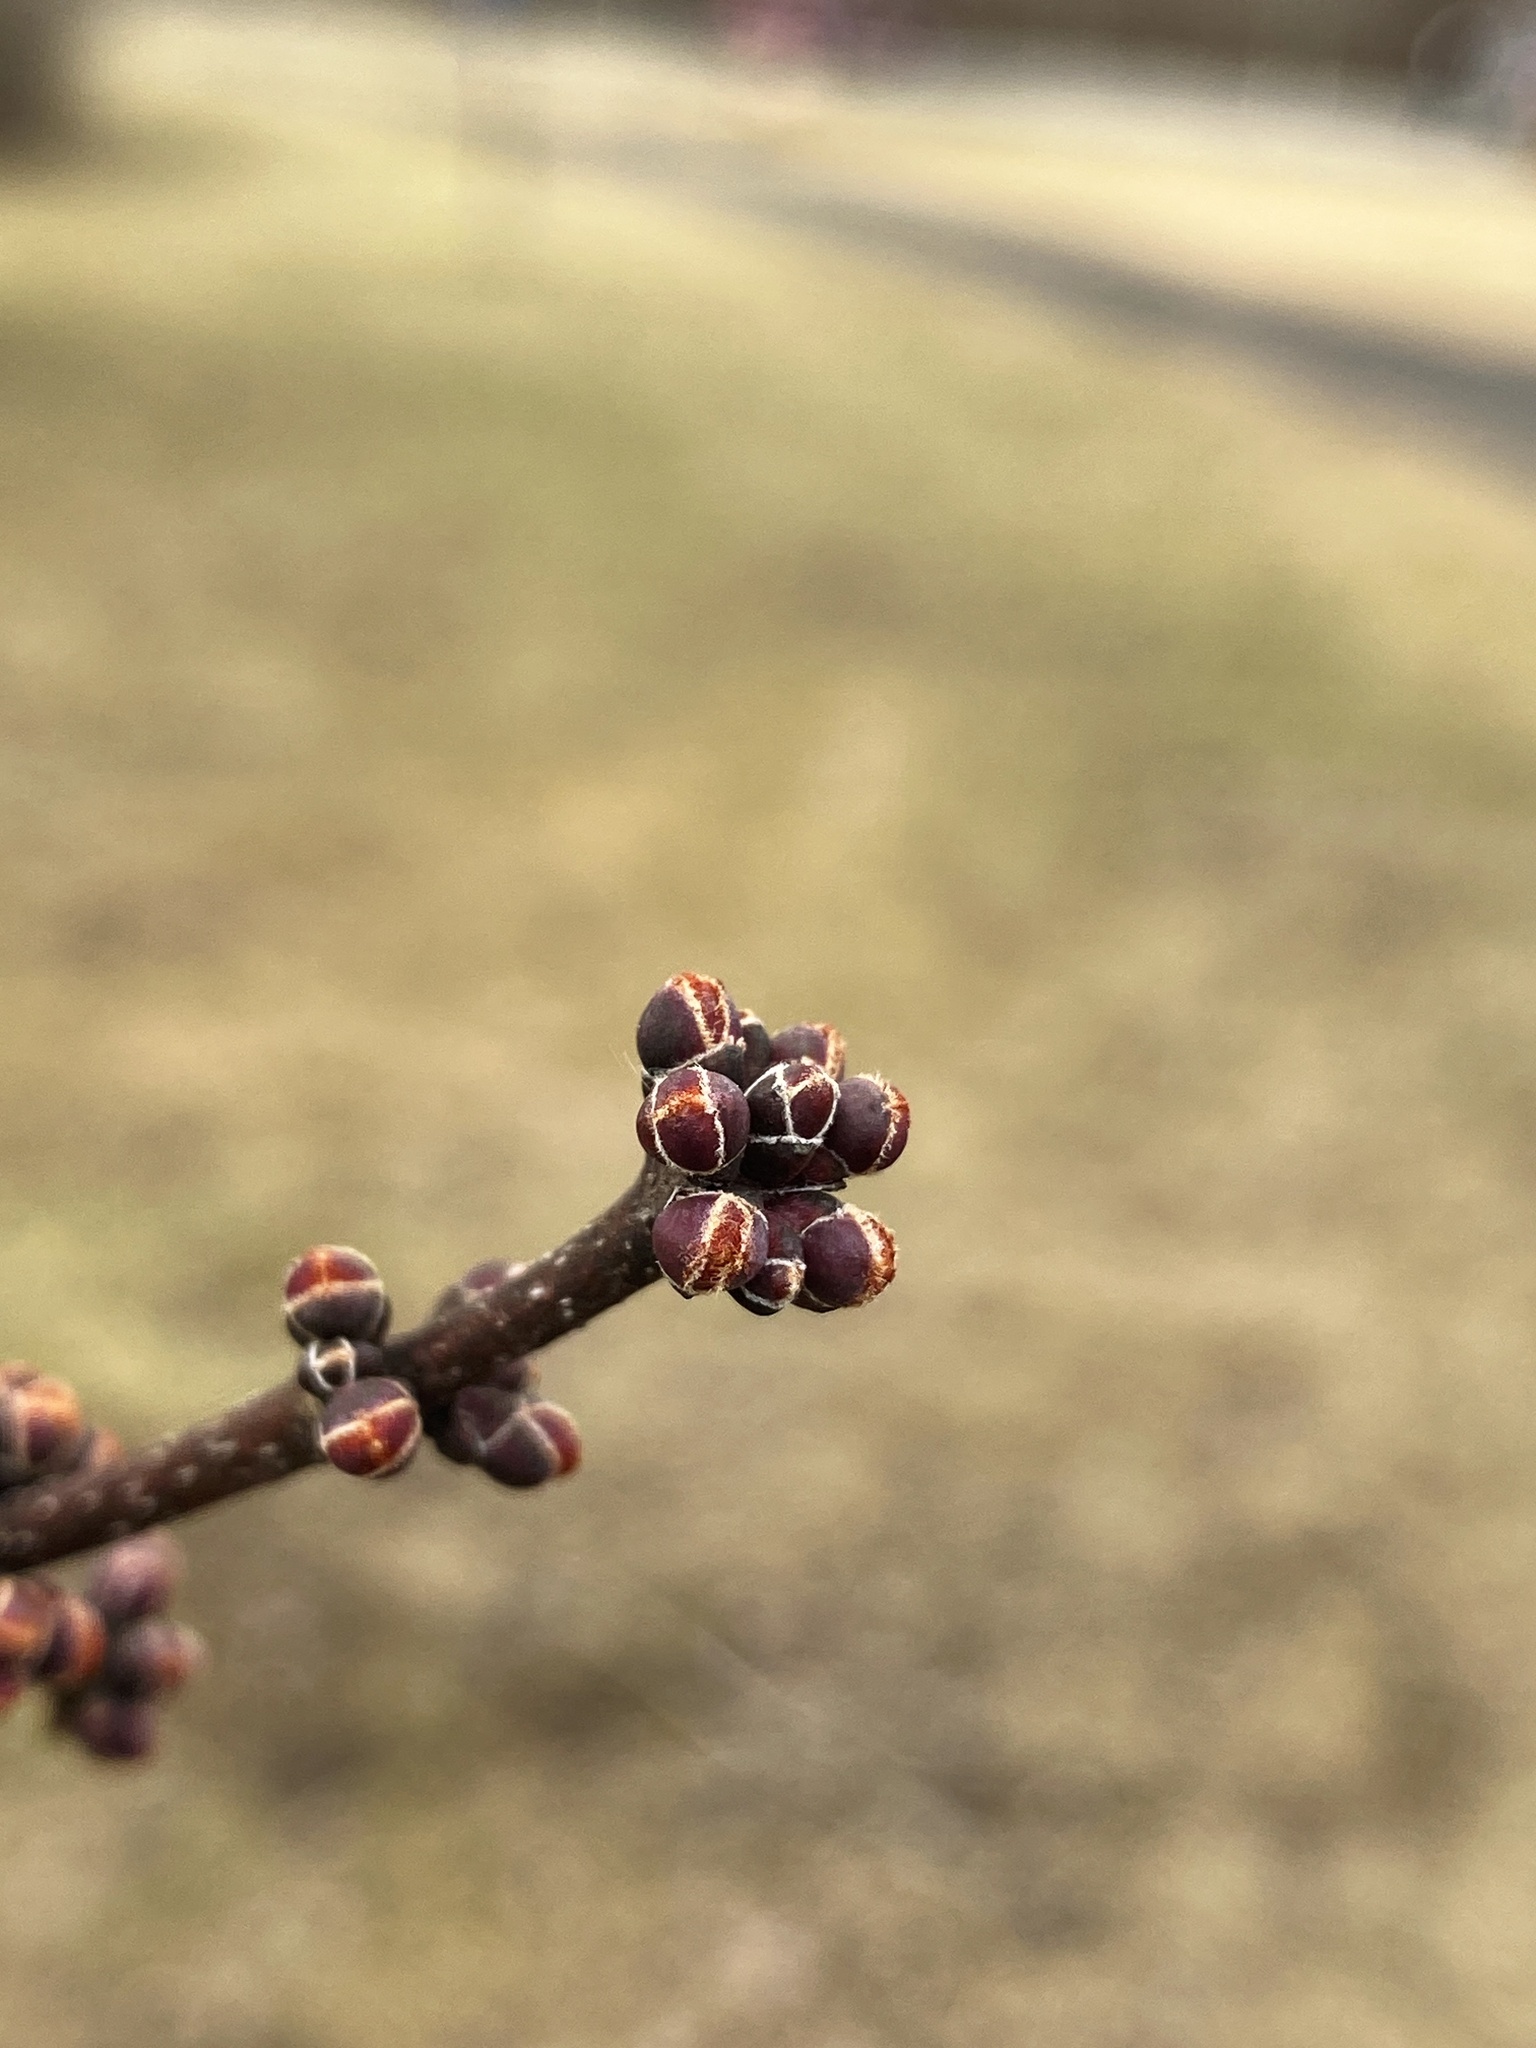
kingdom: Plantae
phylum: Tracheophyta
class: Magnoliopsida
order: Sapindales
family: Sapindaceae
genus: Acer
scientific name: Acer rubrum
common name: Red maple
